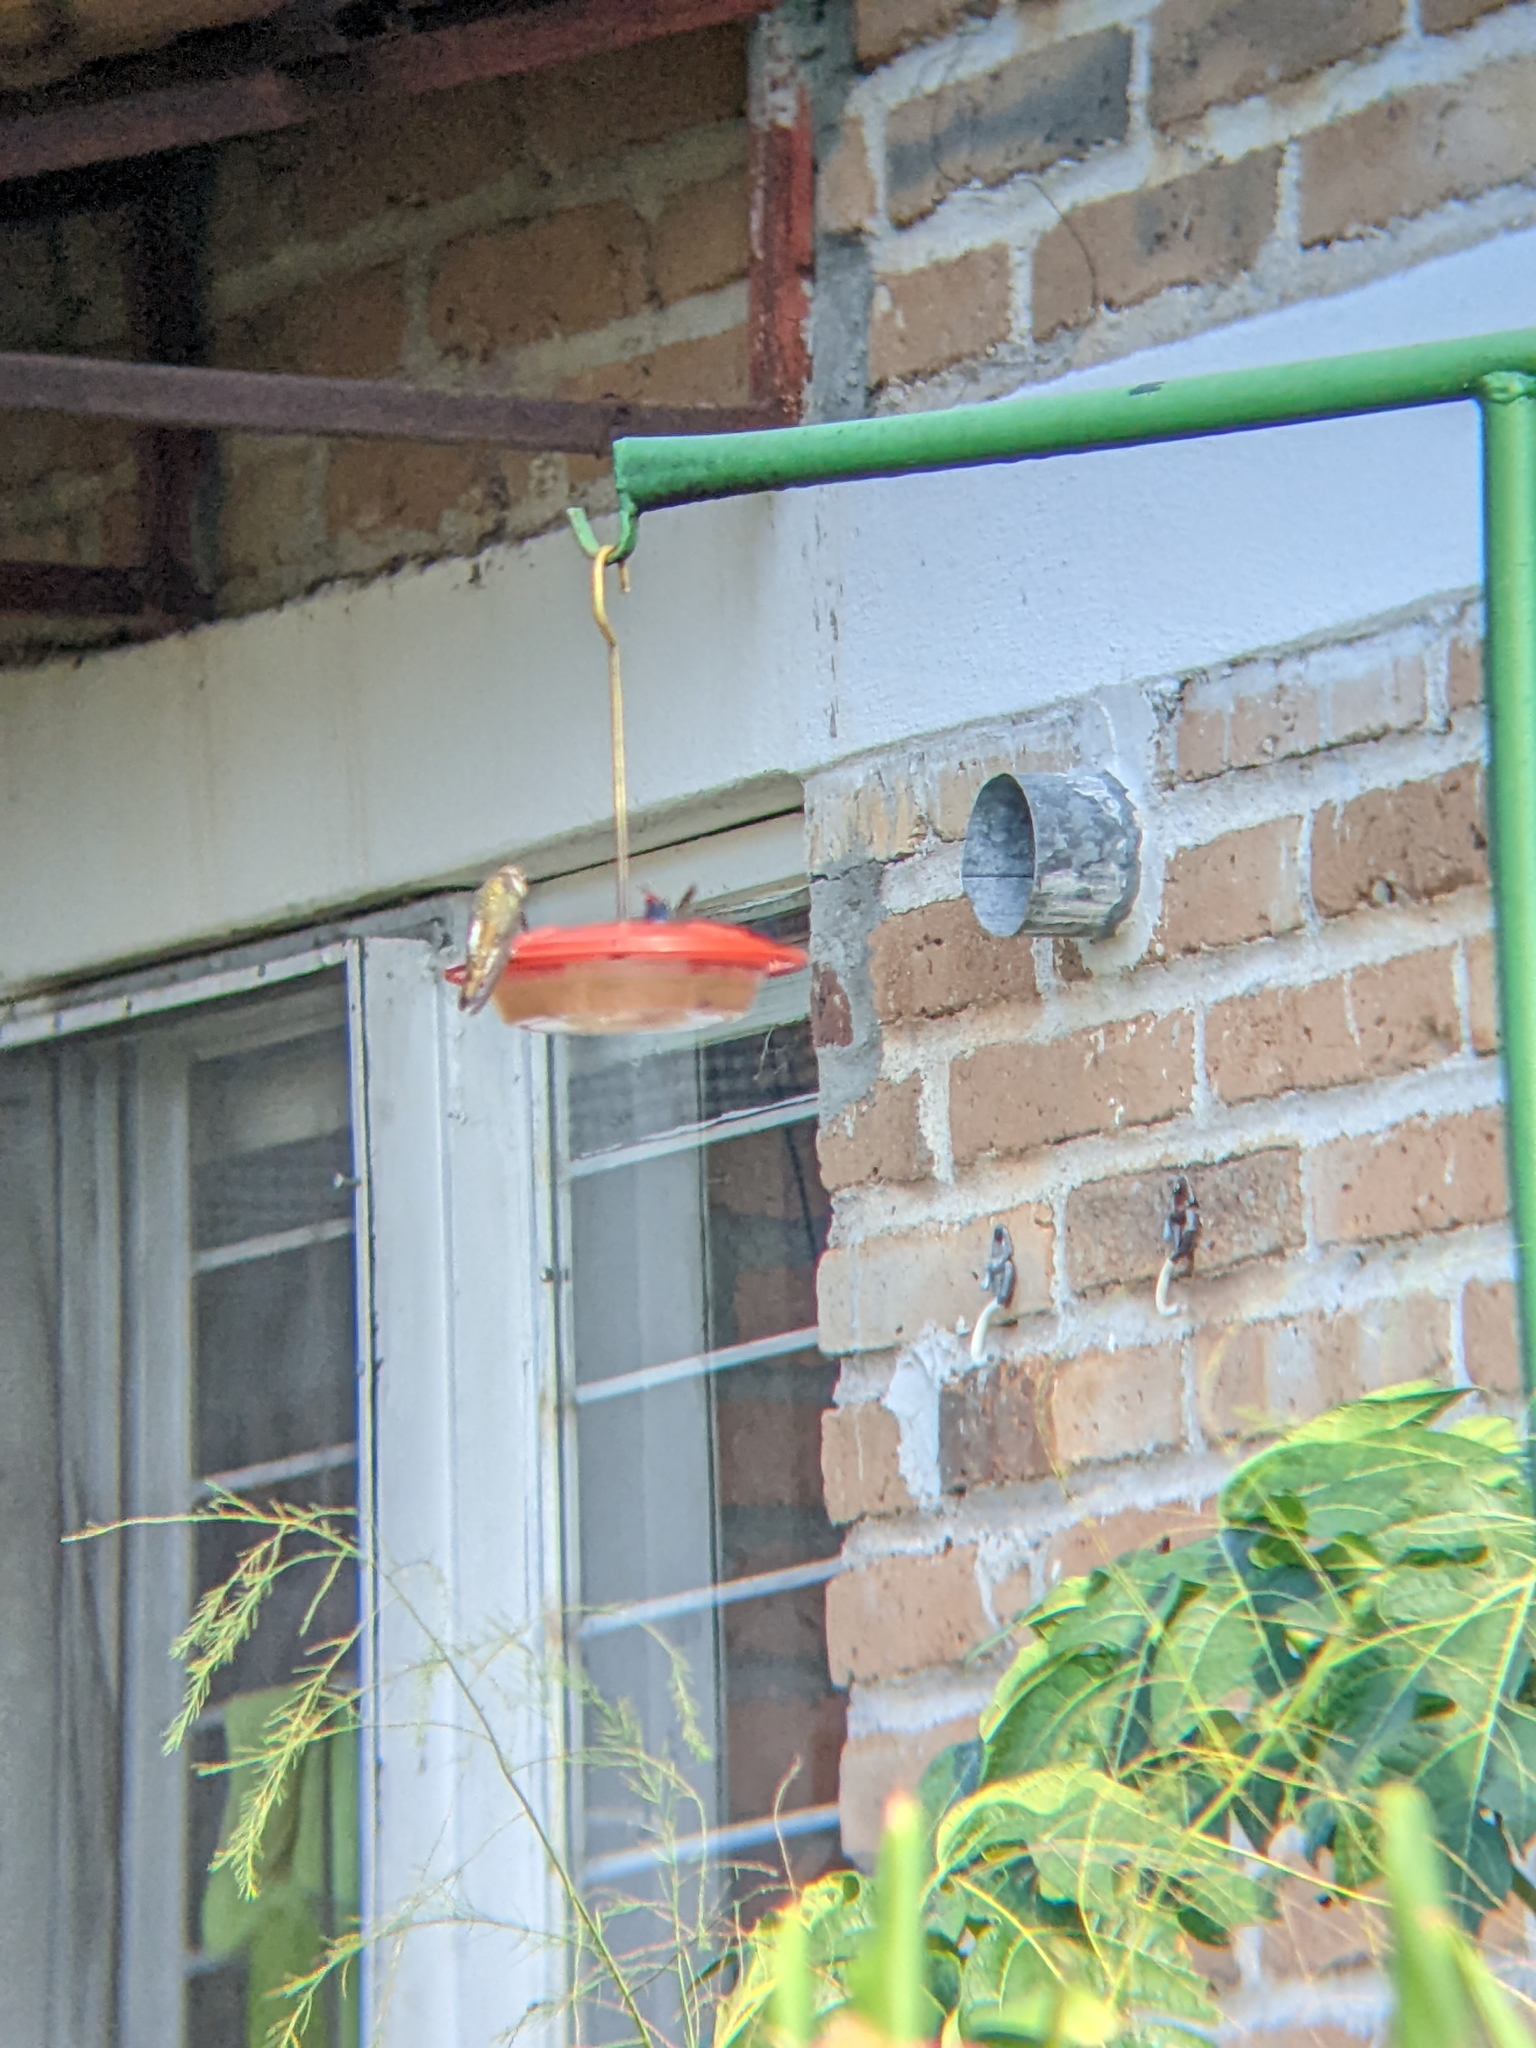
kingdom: Animalia
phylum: Chordata
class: Aves
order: Apodiformes
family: Trochilidae
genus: Cynanthus
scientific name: Cynanthus latirostris
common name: Broad-billed hummingbird
